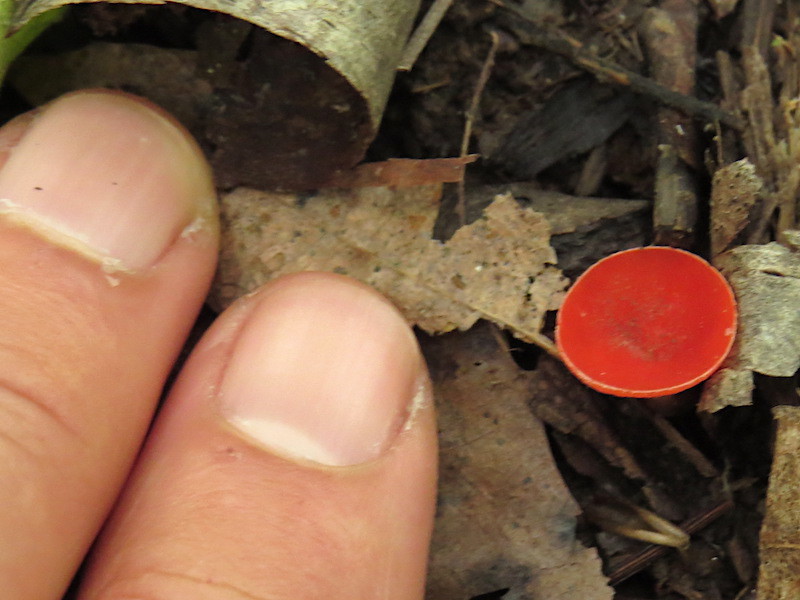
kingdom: Fungi
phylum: Ascomycota
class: Pezizomycetes
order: Pezizales
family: Sarcoscyphaceae
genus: Sarcoscypha
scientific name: Sarcoscypha occidentalis
